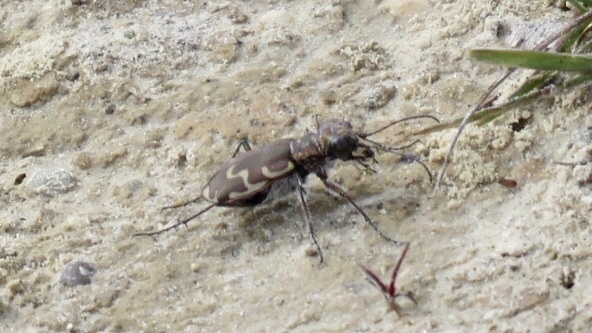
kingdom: Animalia
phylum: Arthropoda
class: Insecta
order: Coleoptera
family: Carabidae
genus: Cicindela
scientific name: Cicindela repanda
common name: Bronzed tiger beetle
